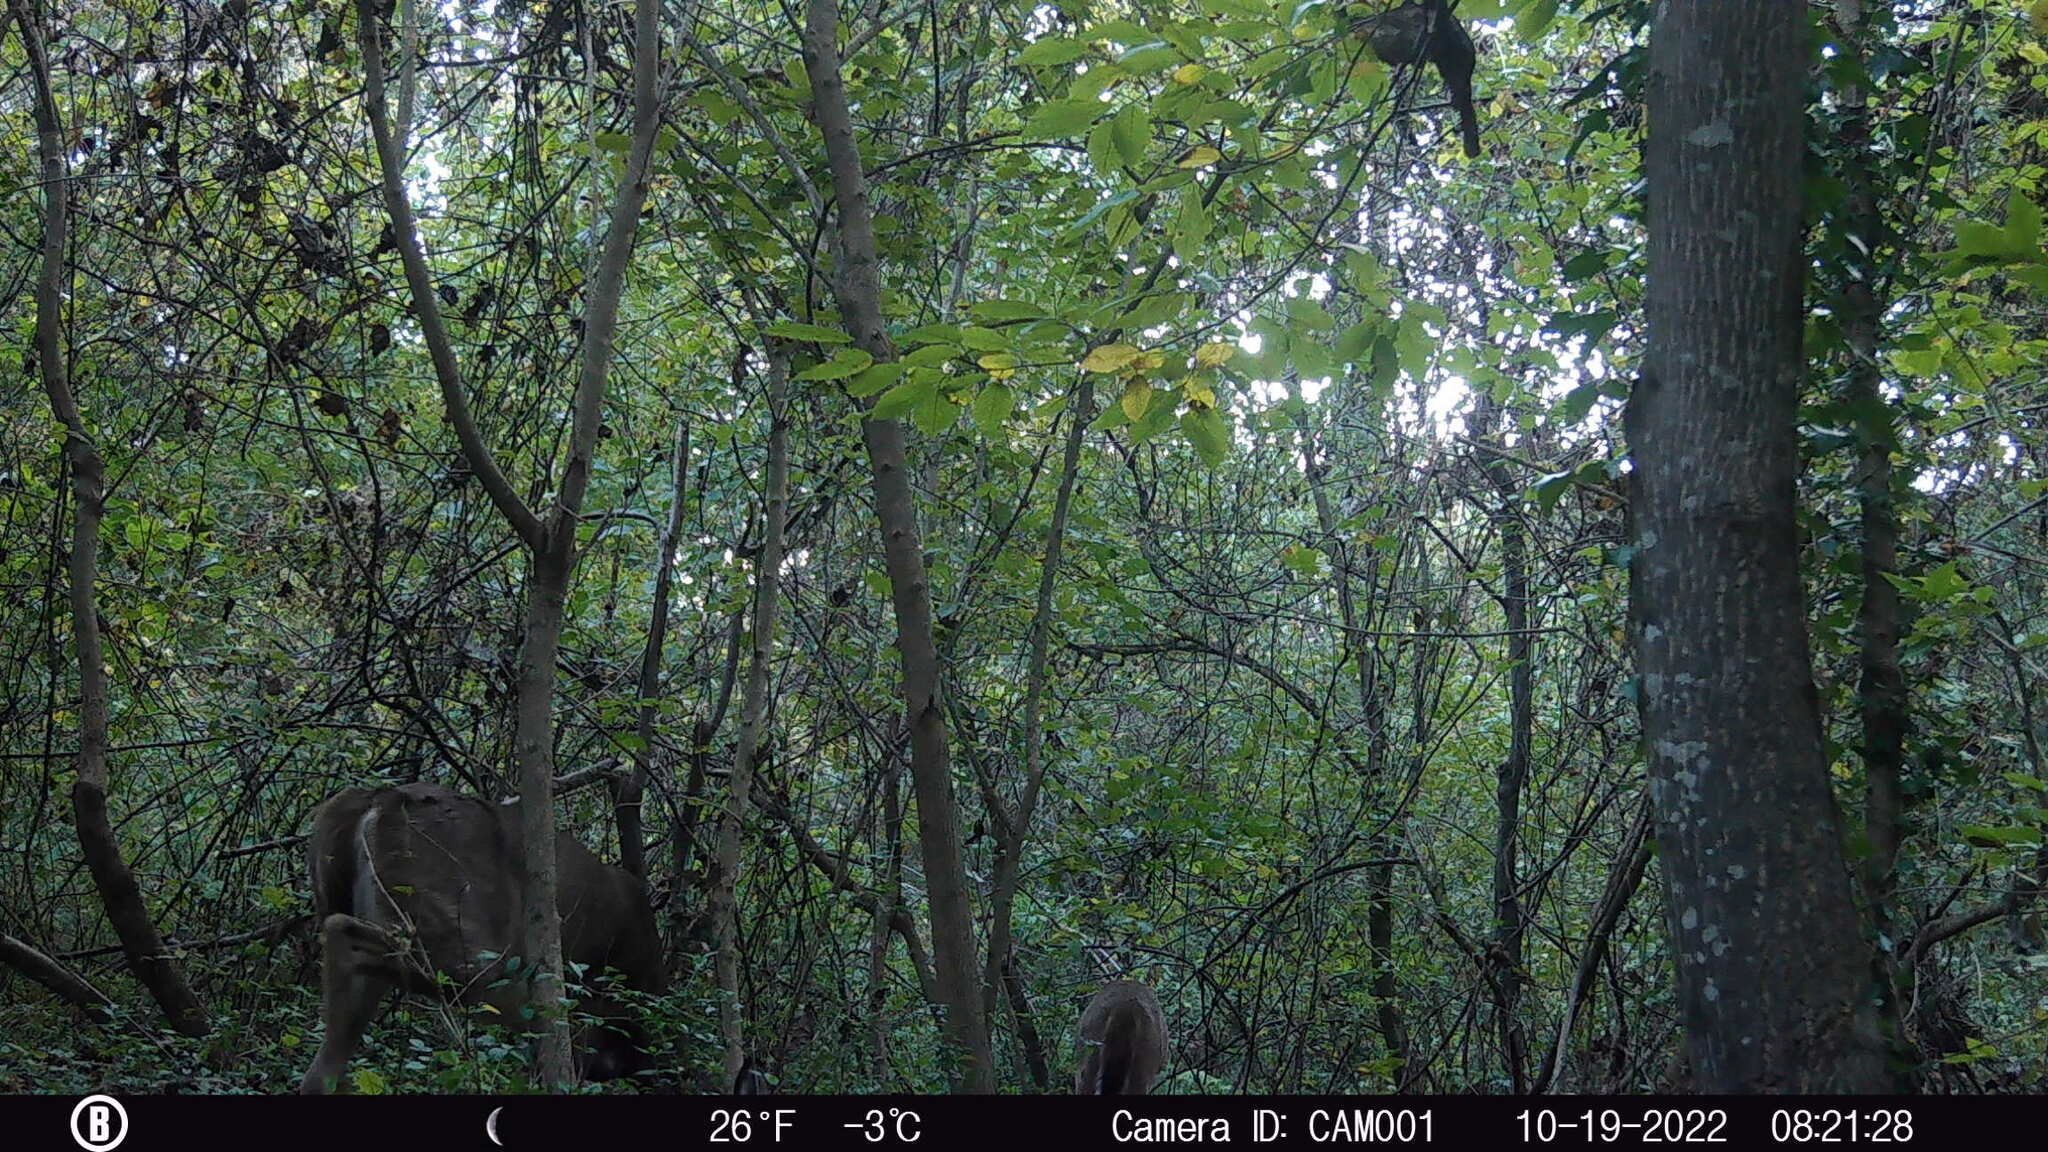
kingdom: Animalia
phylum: Chordata
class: Mammalia
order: Artiodactyla
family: Cervidae
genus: Odocoileus
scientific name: Odocoileus virginianus
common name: White-tailed deer
